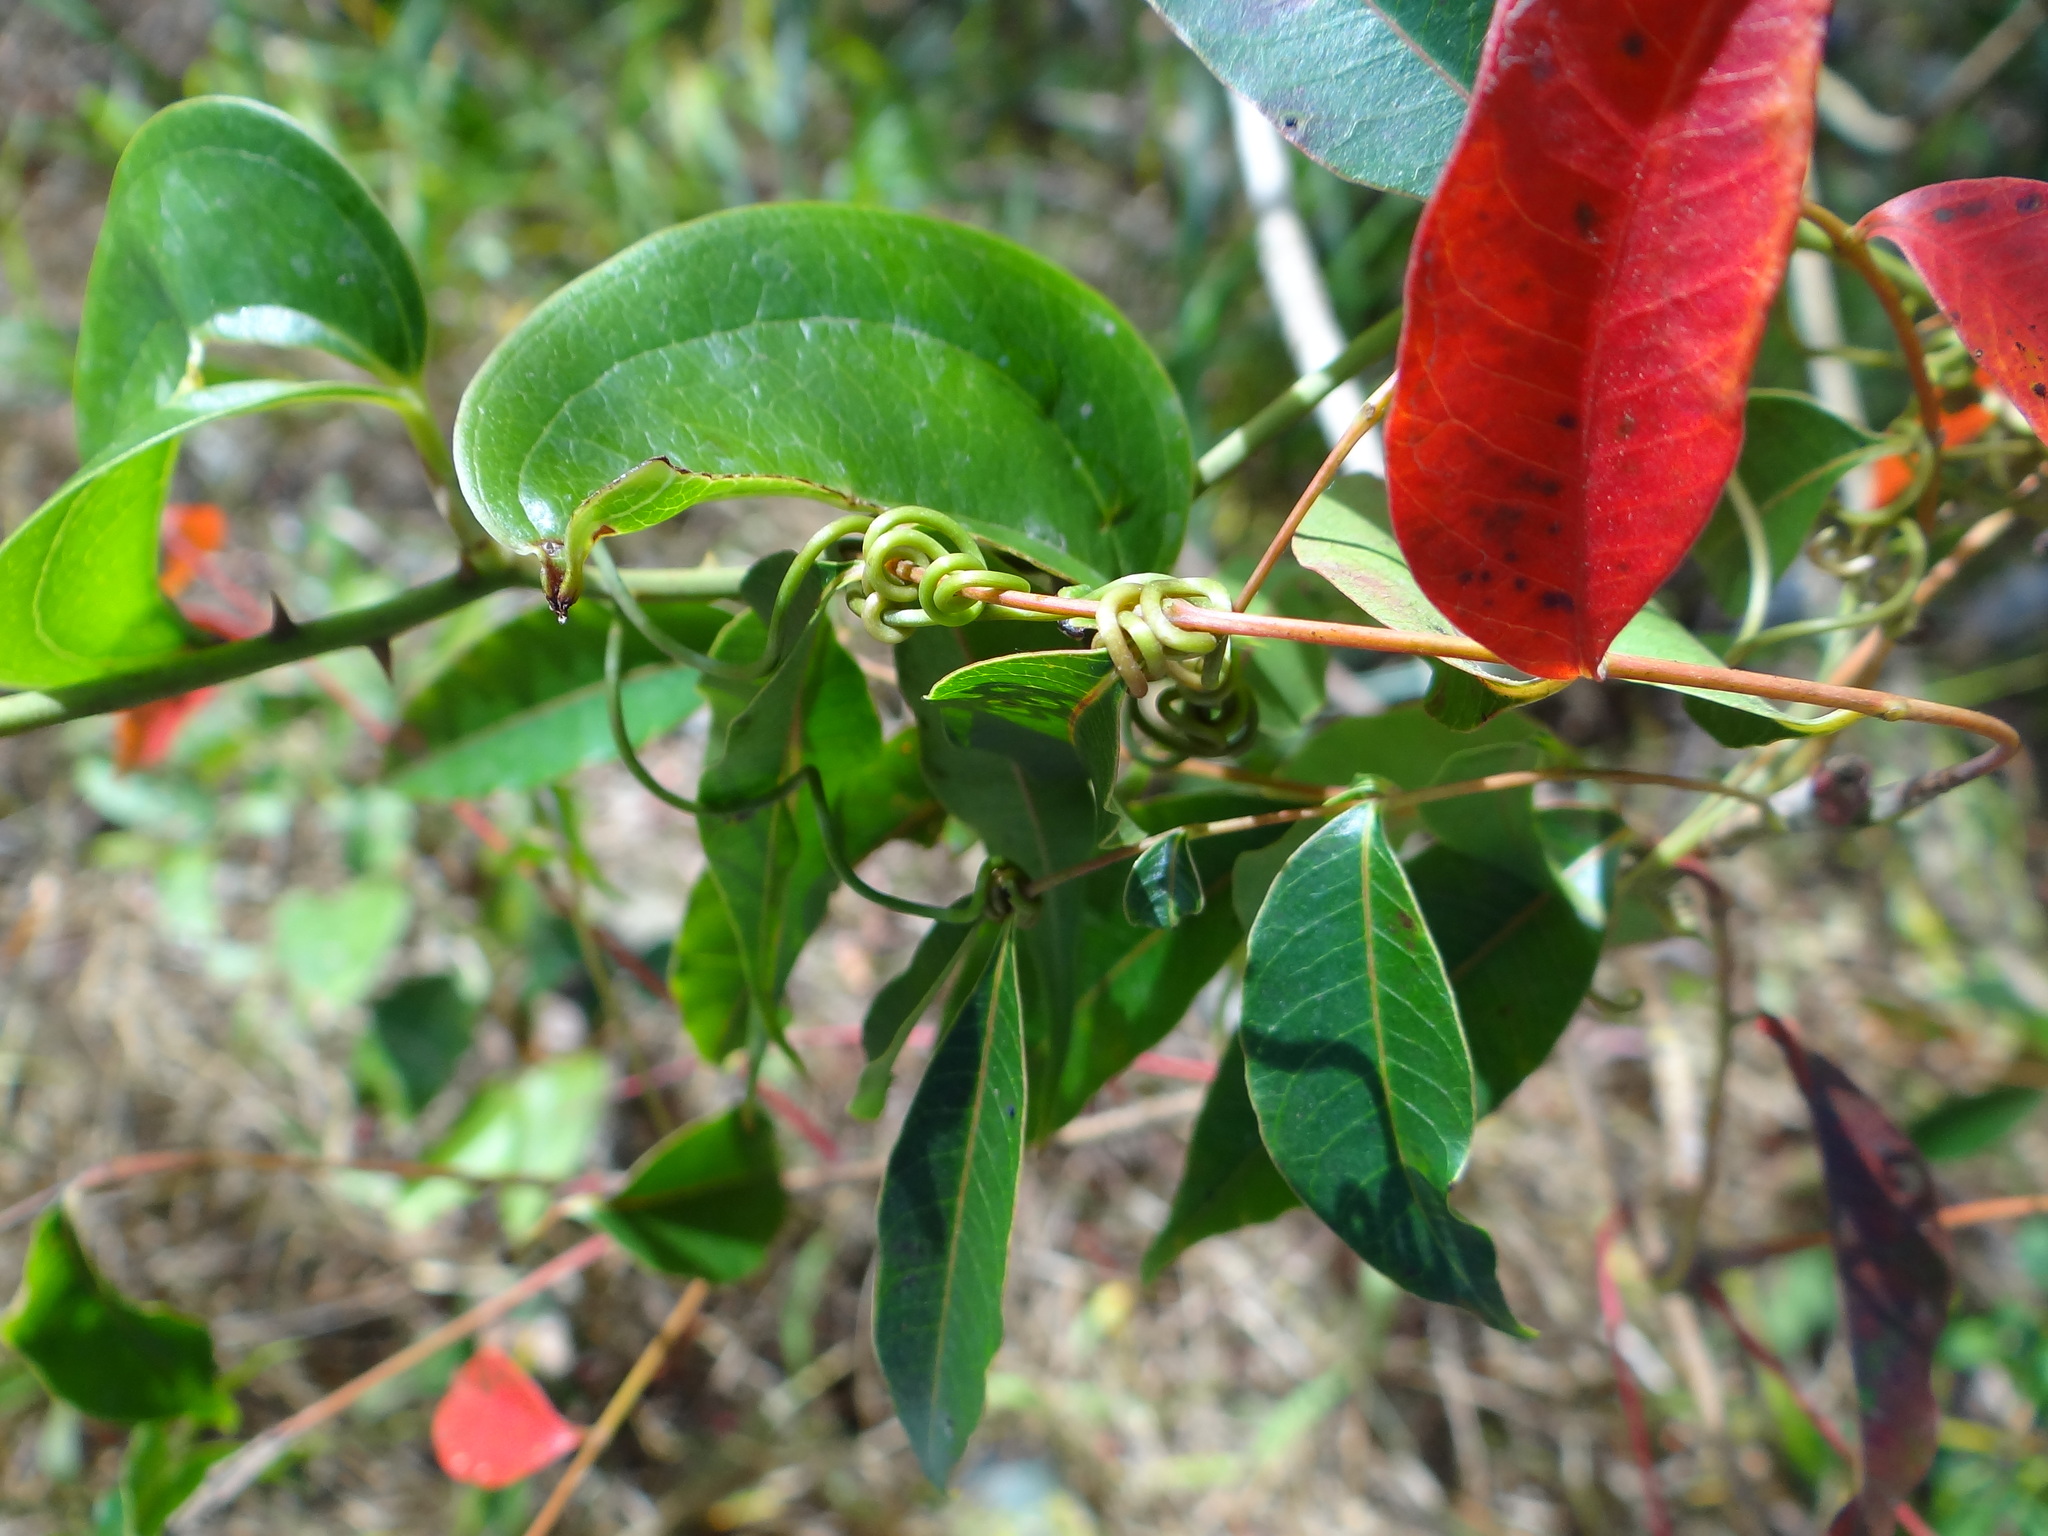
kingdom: Plantae
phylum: Tracheophyta
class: Liliopsida
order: Liliales
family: Smilacaceae
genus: Smilax
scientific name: Smilax china
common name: Chinaroot
